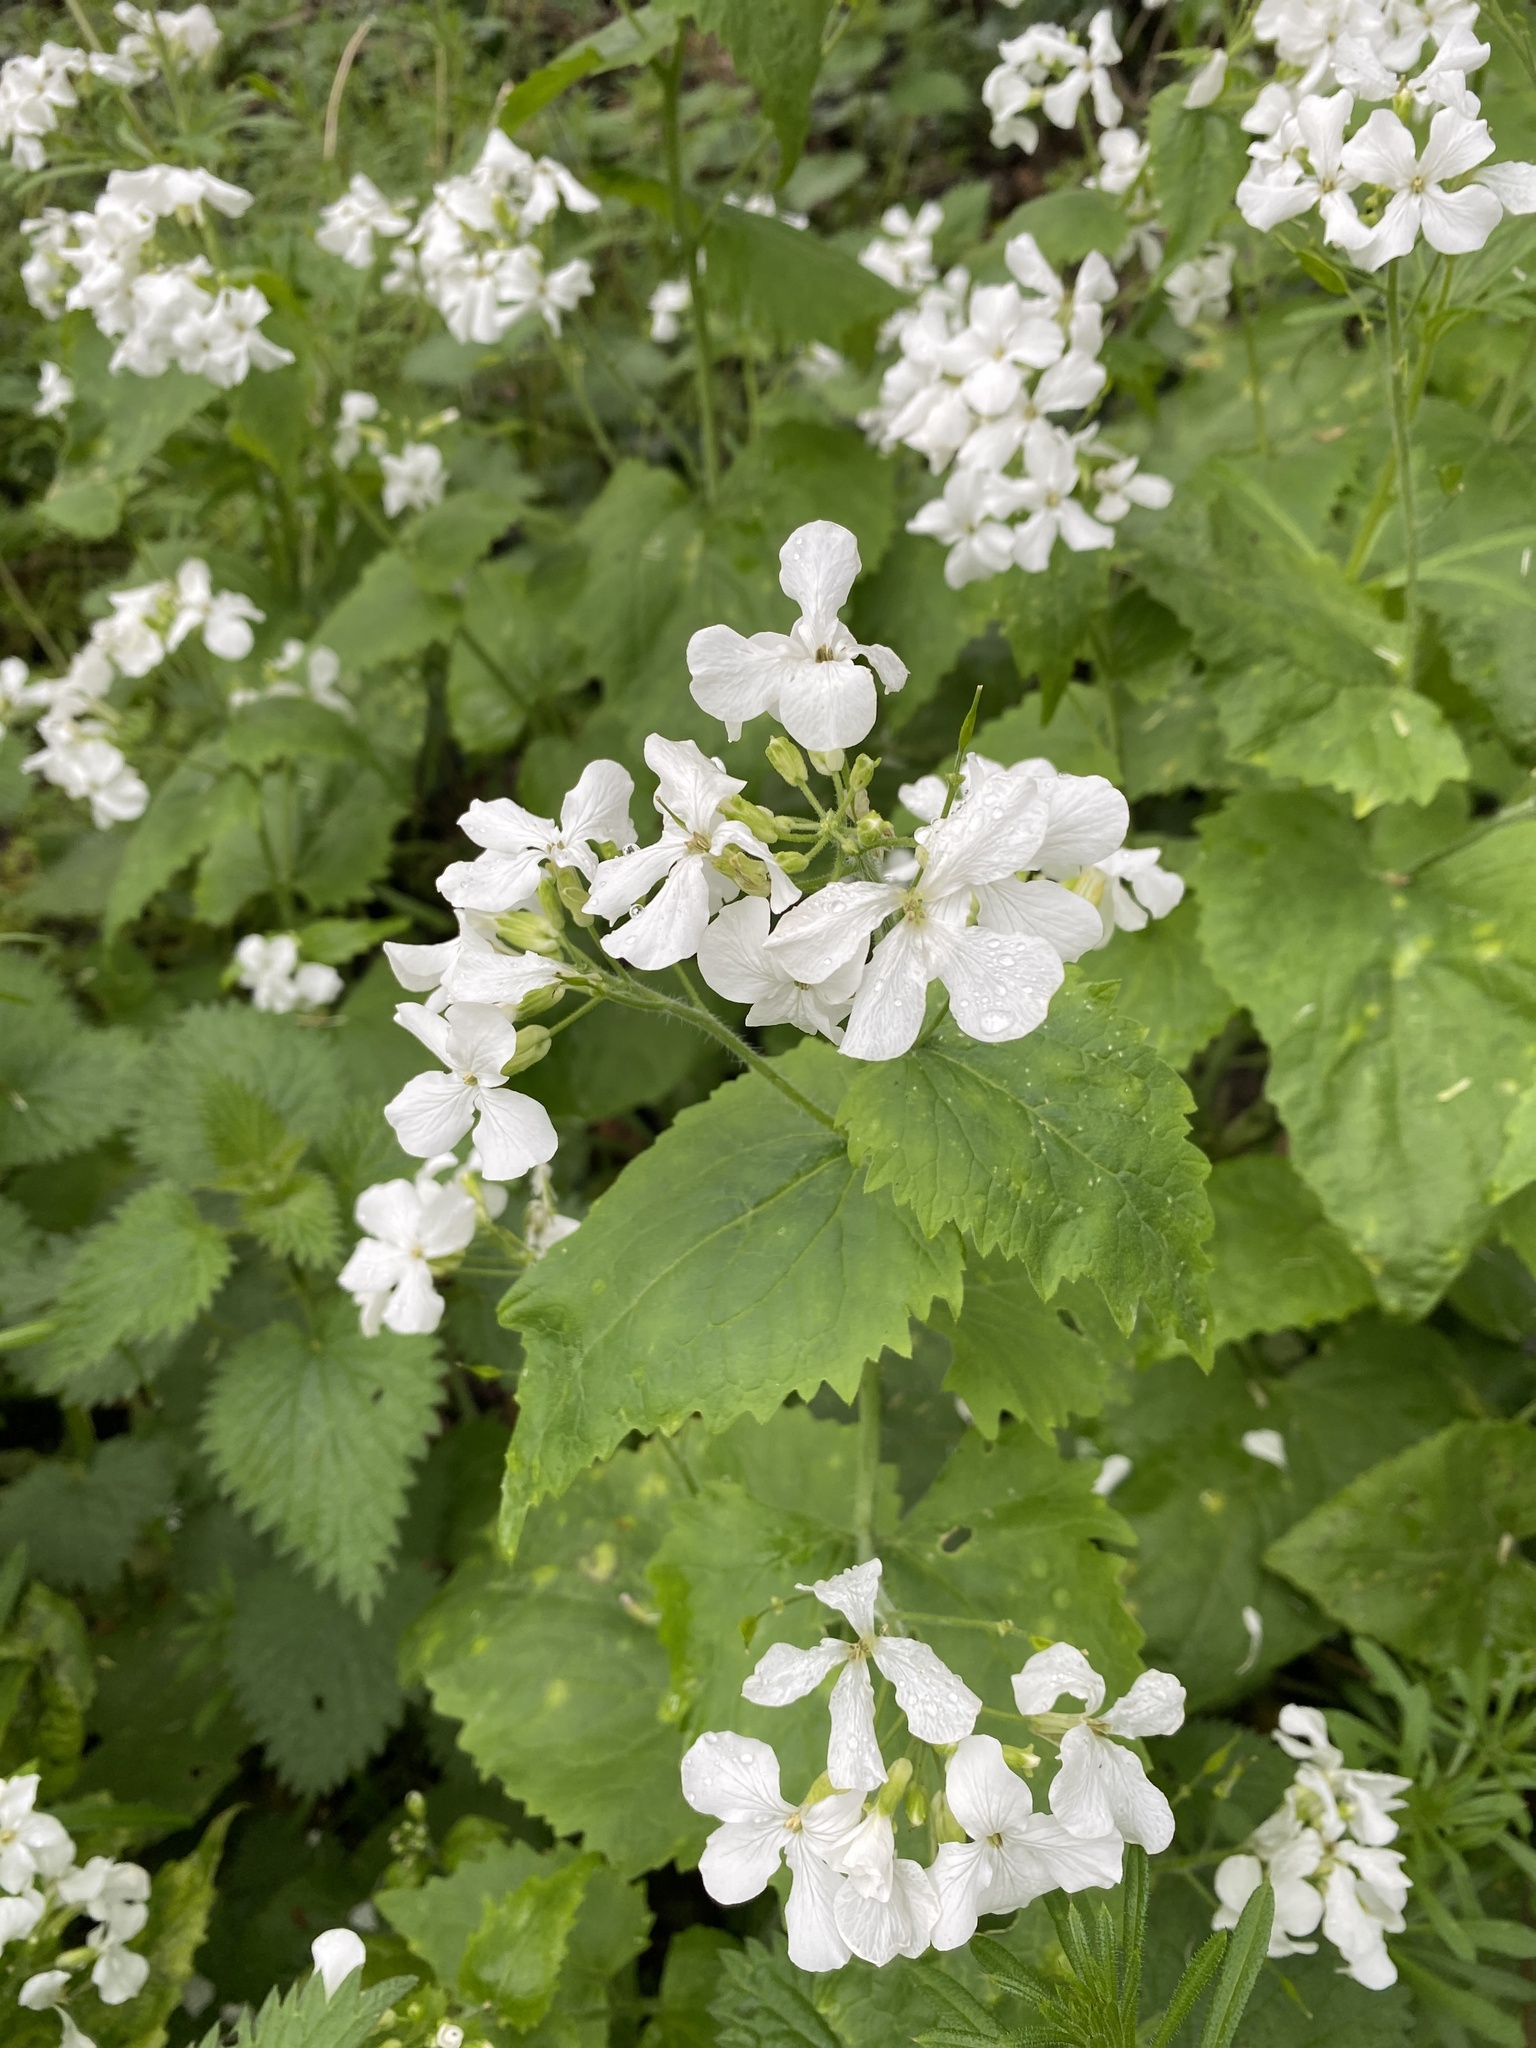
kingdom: Plantae
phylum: Tracheophyta
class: Magnoliopsida
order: Brassicales
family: Brassicaceae
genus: Lunaria
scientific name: Lunaria annua
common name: Honesty
